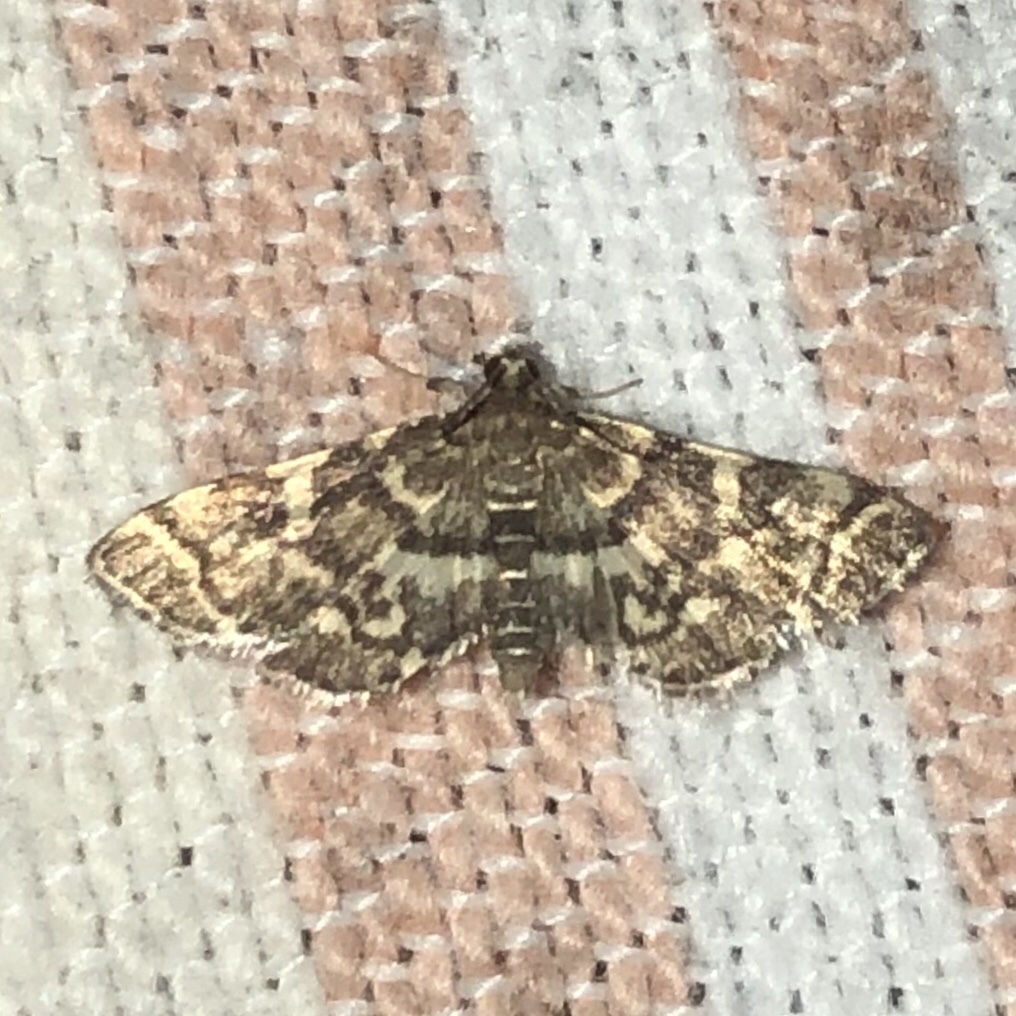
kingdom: Animalia
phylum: Arthropoda
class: Insecta
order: Lepidoptera
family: Crambidae
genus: Anageshna
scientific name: Anageshna primordialis
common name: Yellow-spotted webworm moth
